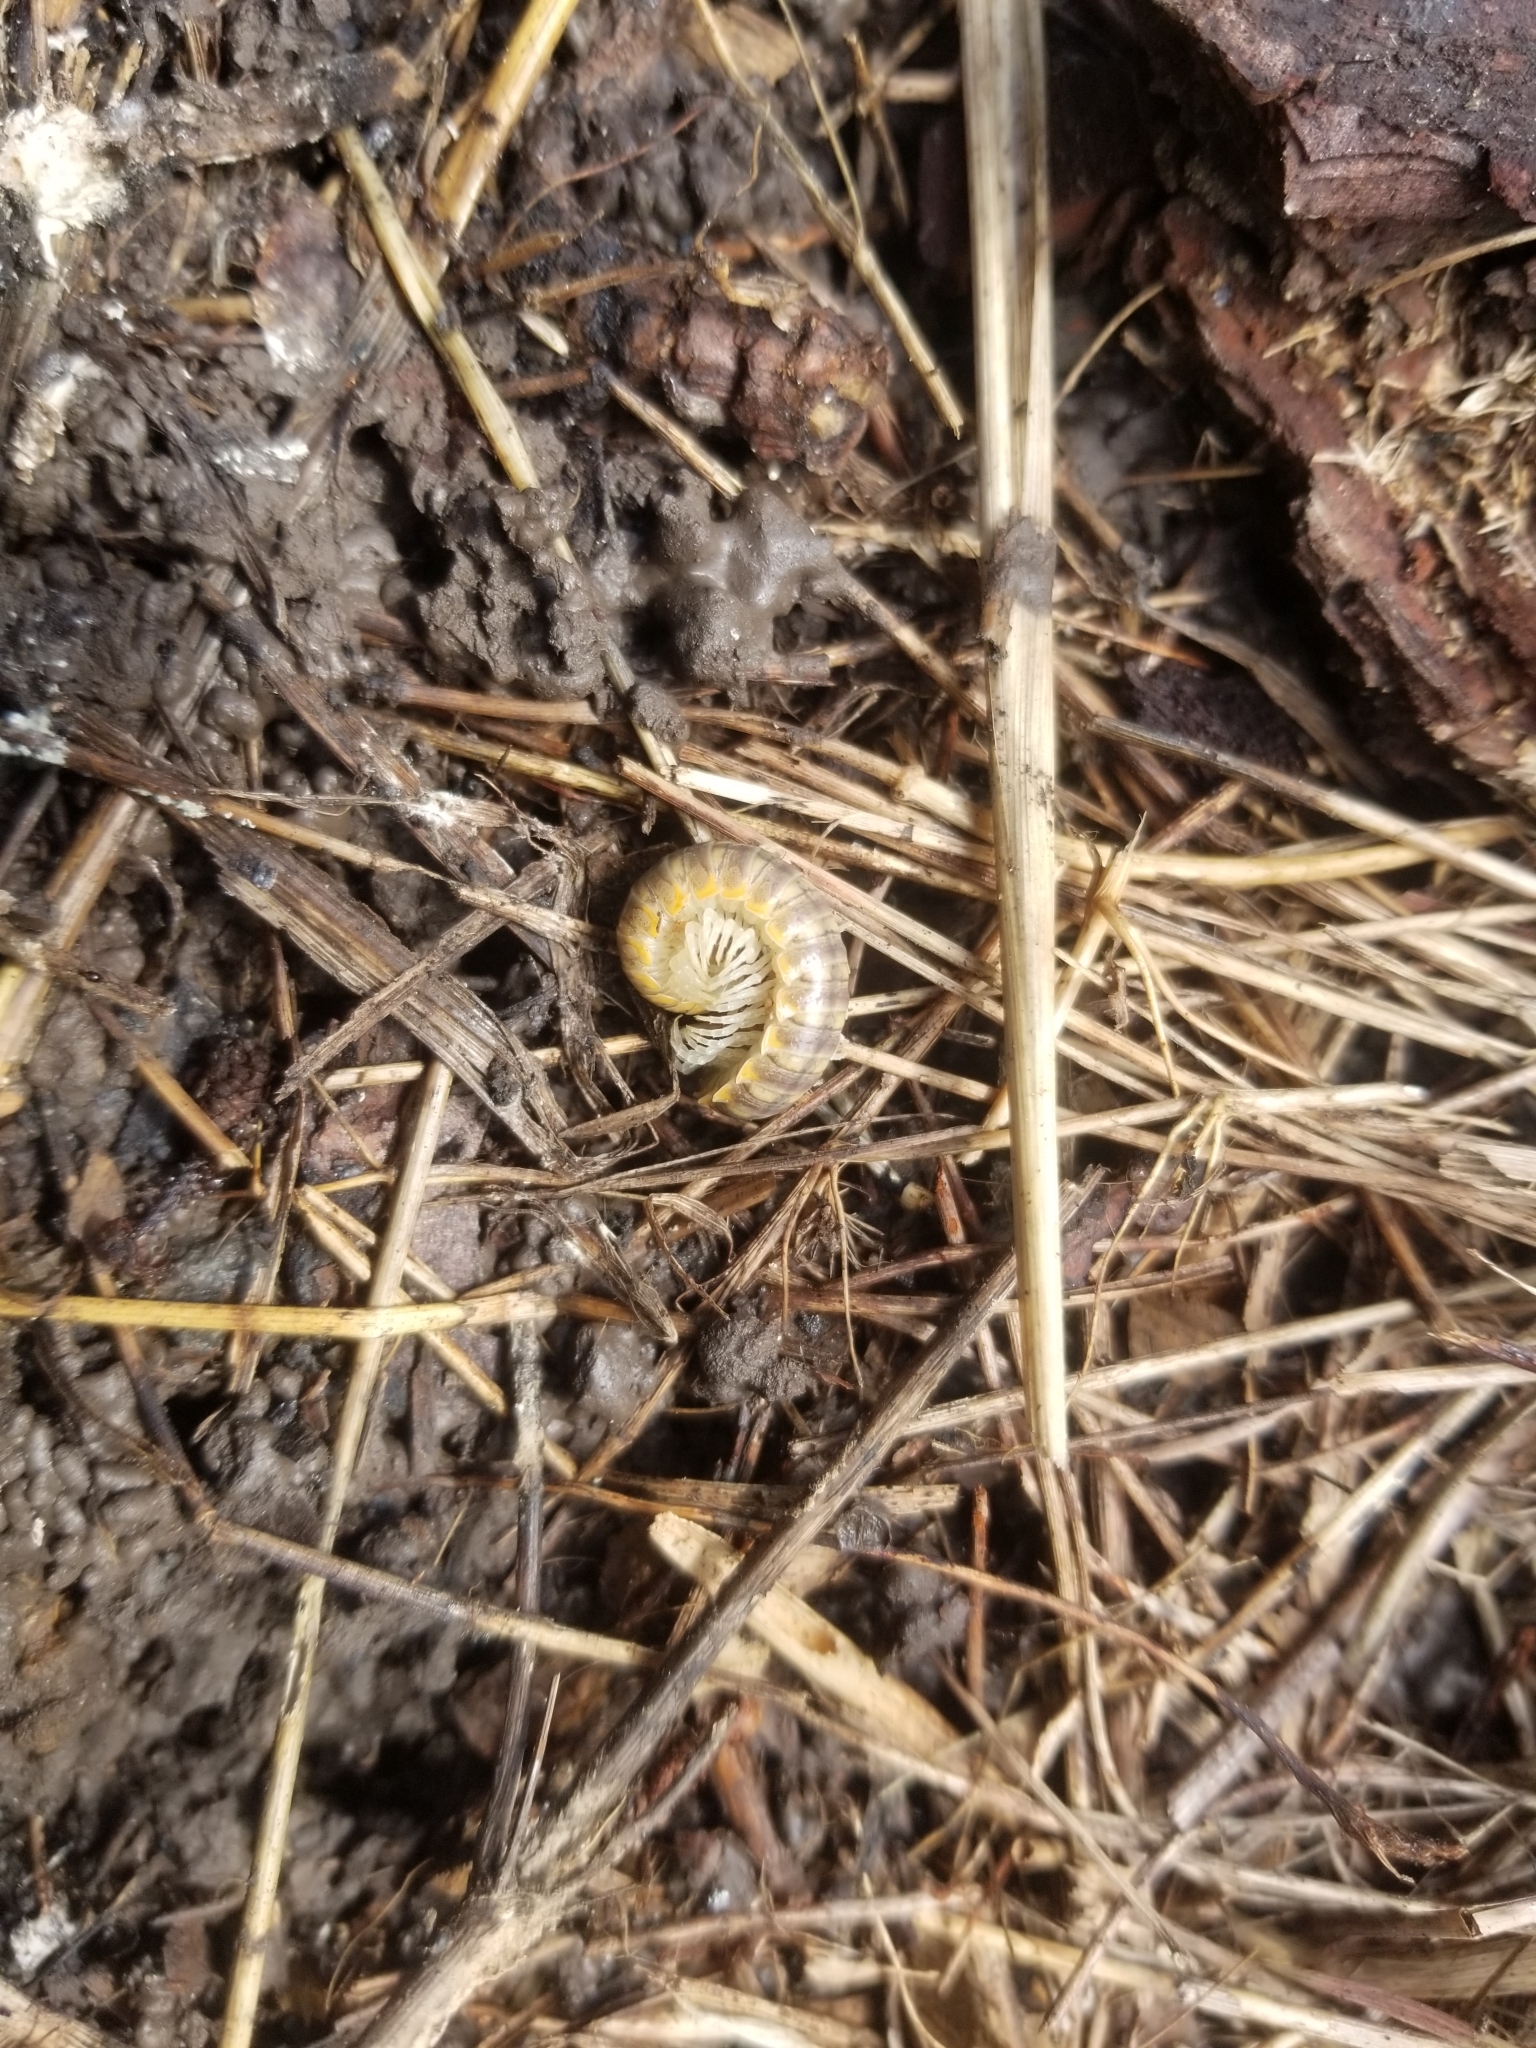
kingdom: Animalia
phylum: Arthropoda
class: Diplopoda
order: Polydesmida
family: Xystodesmidae
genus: Xystocheir
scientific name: Xystocheir dissecta
